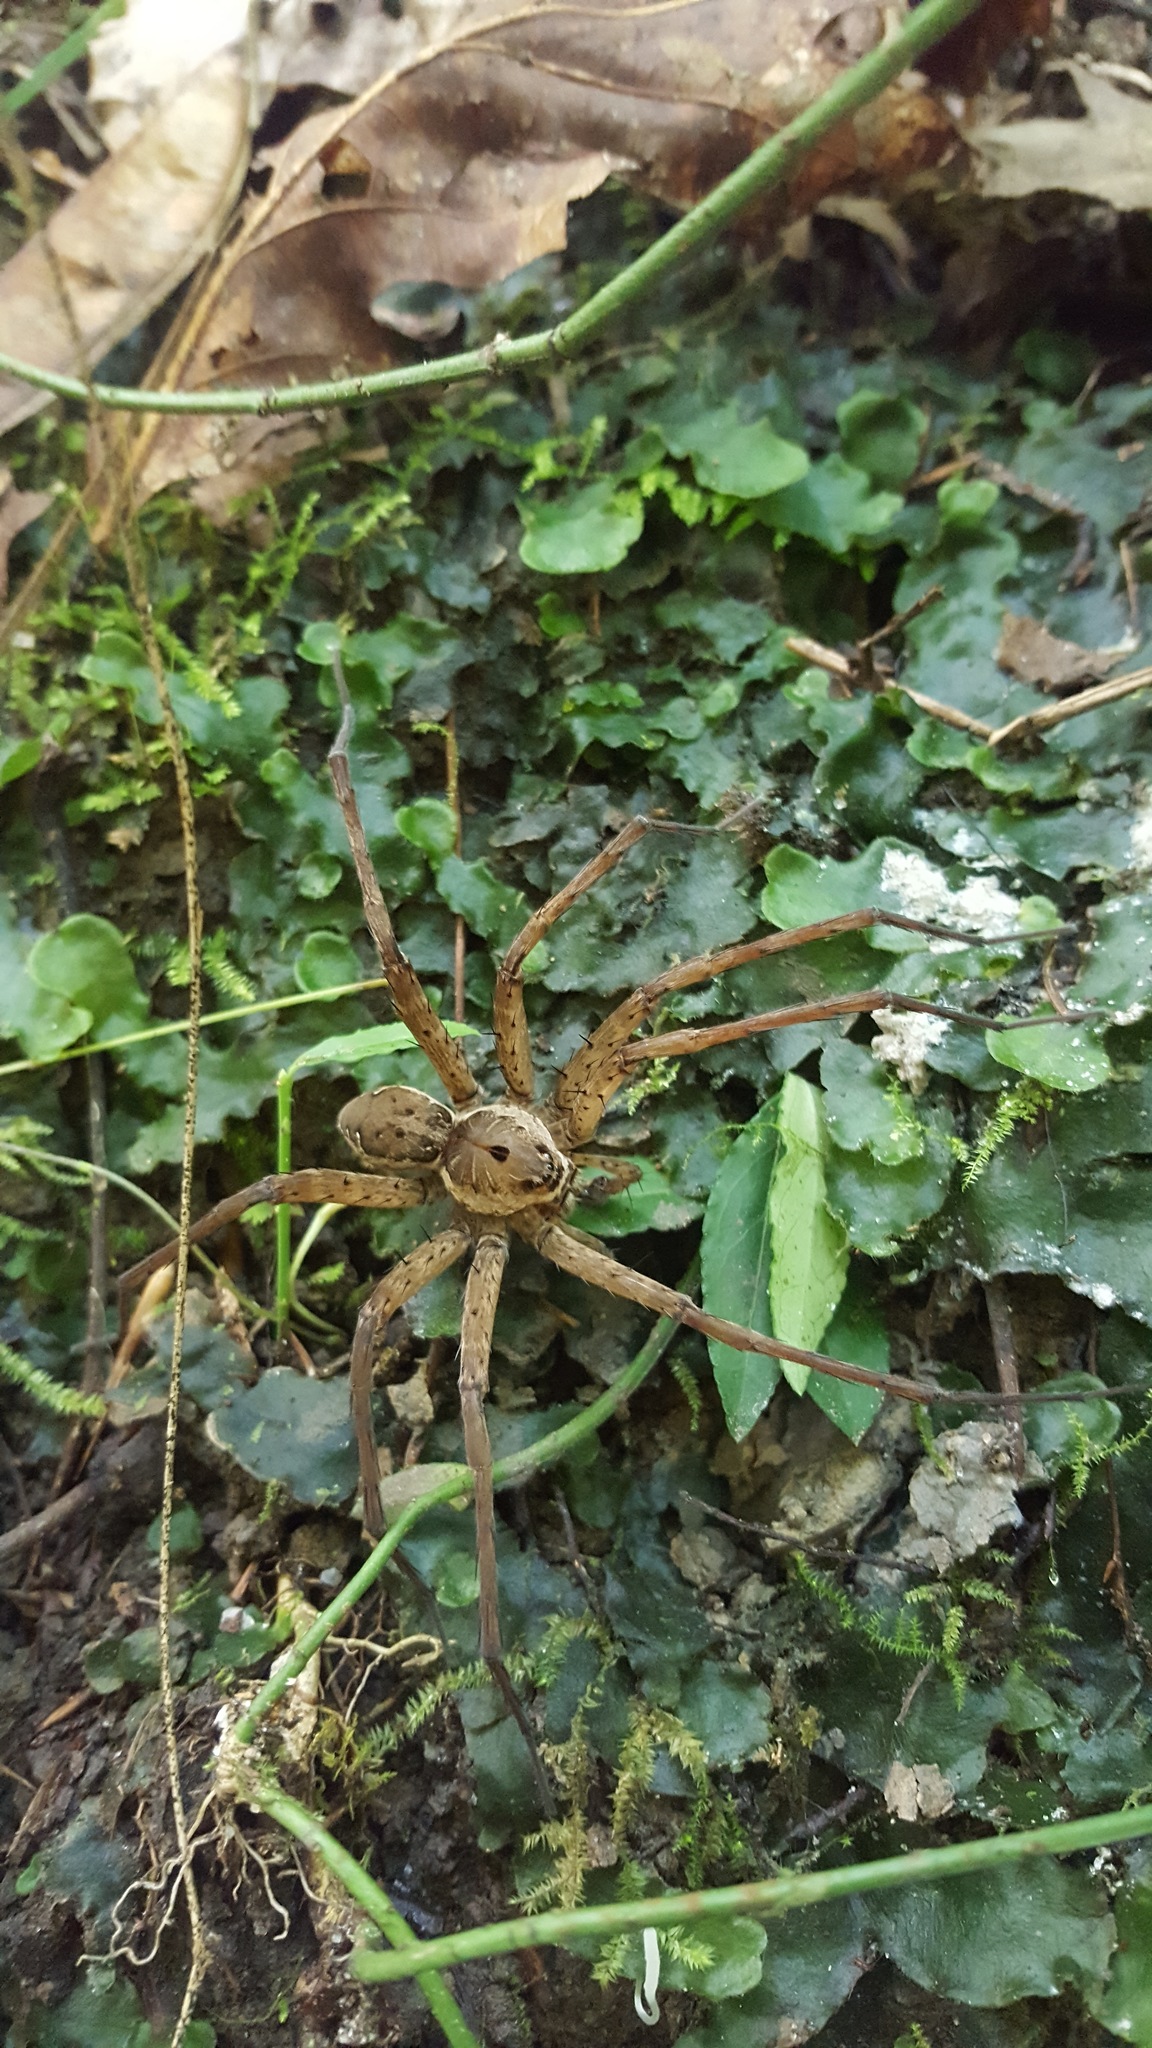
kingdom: Animalia
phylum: Arthropoda
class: Arachnida
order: Araneae
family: Pisauridae
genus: Dolomedes
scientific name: Dolomedes vittatus
